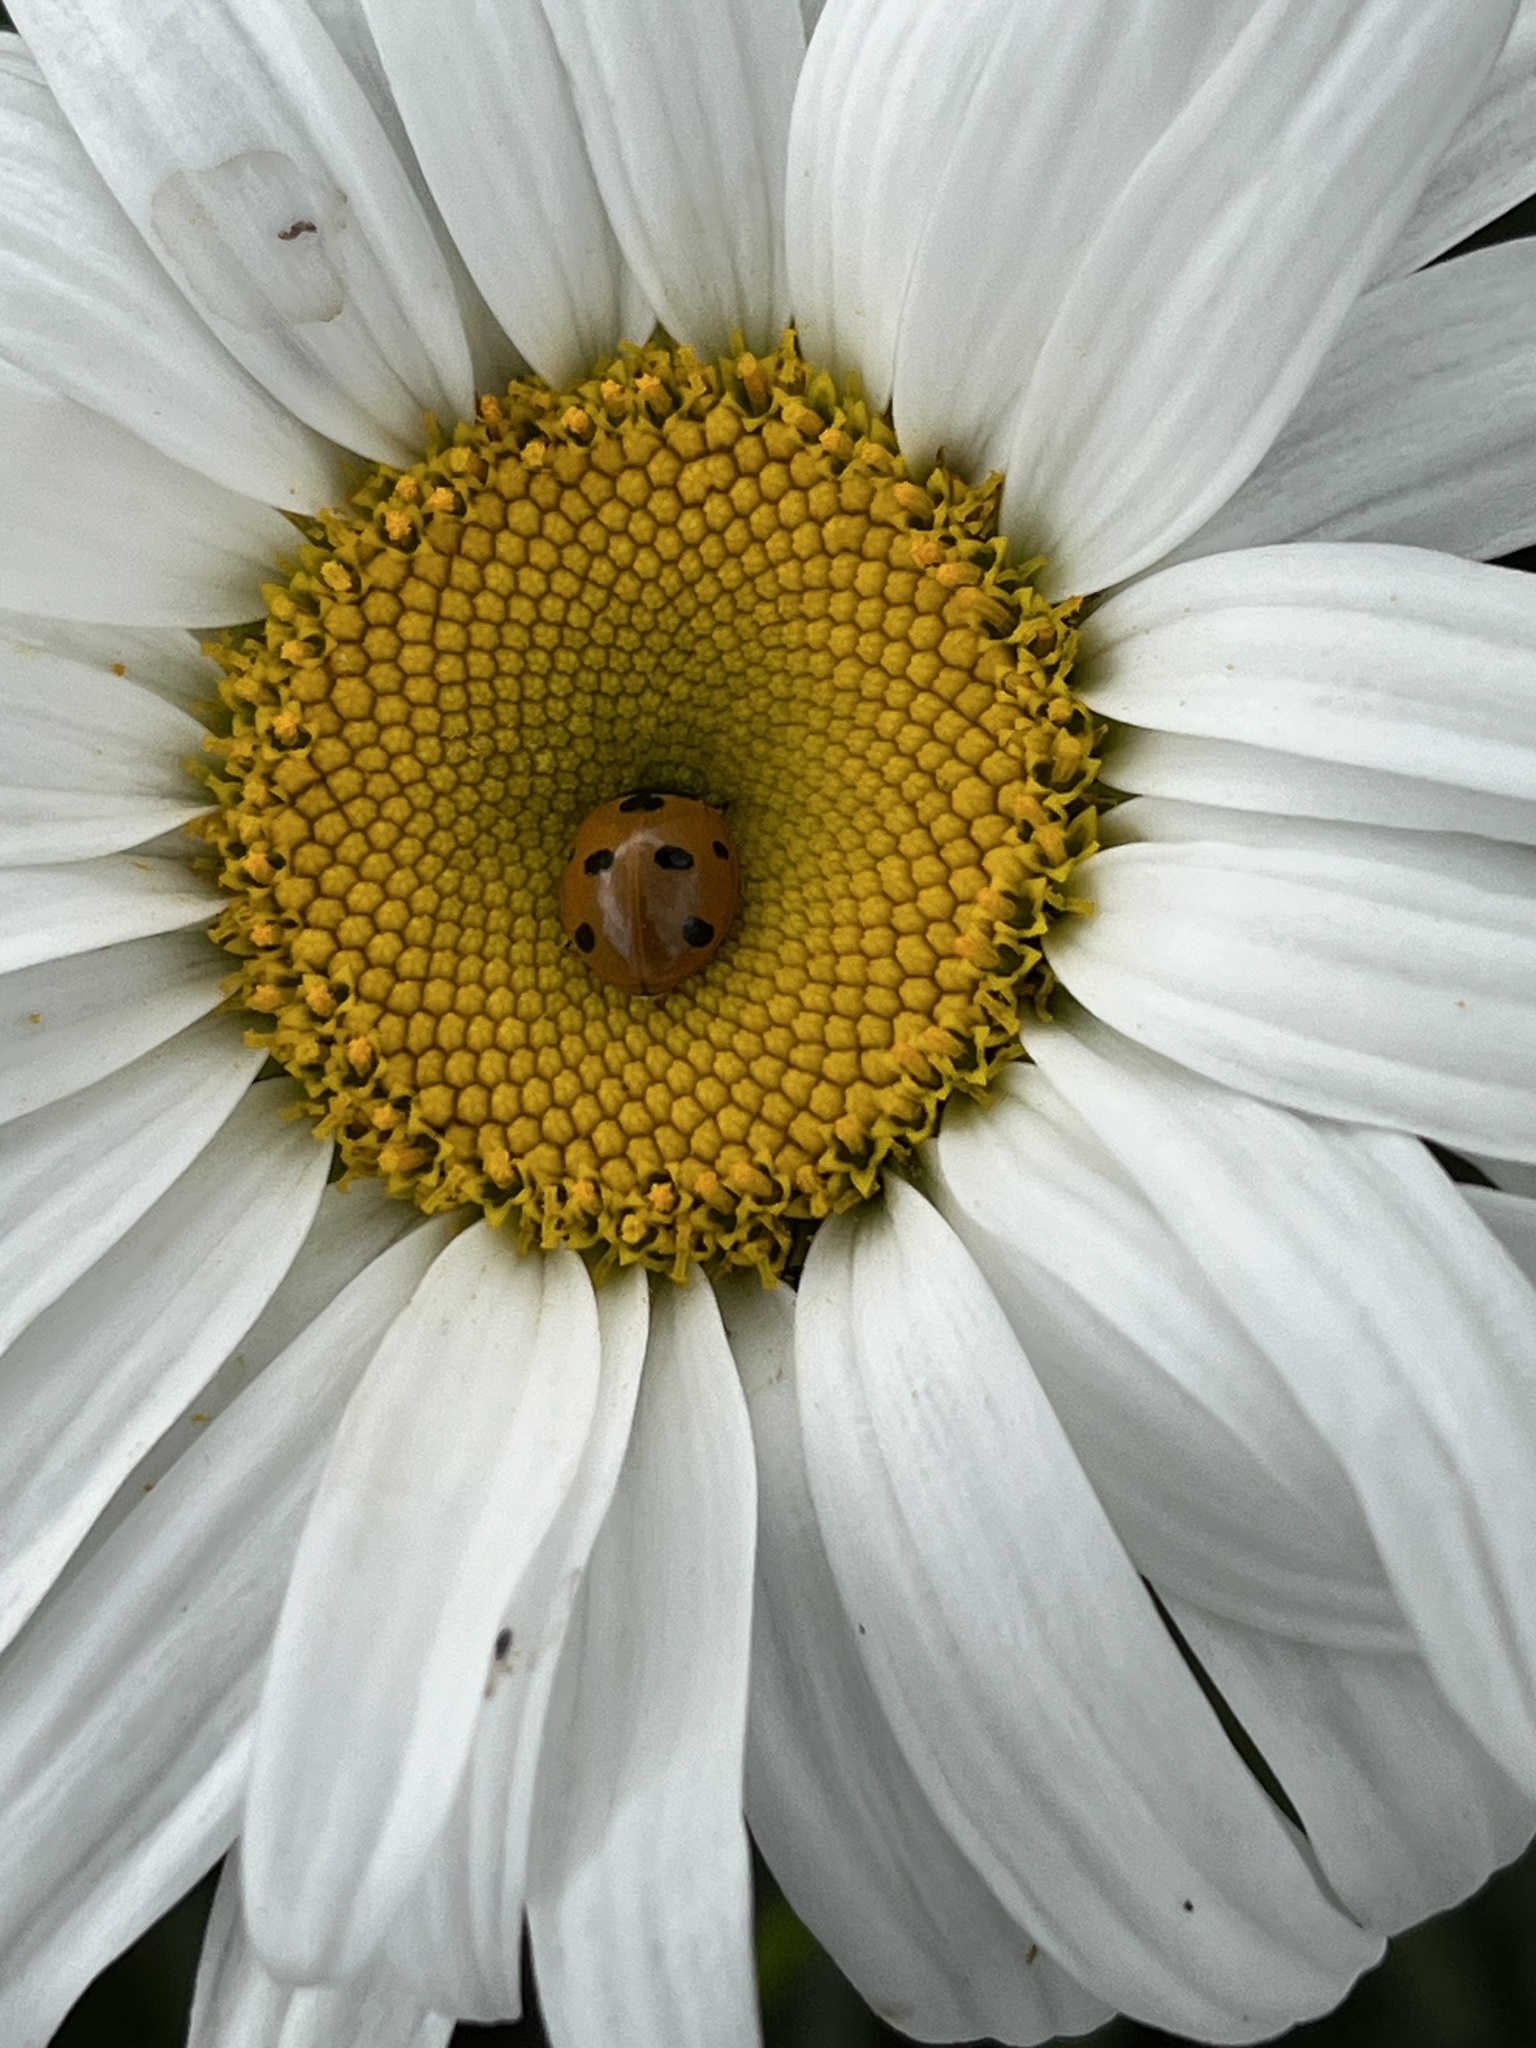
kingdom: Animalia
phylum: Arthropoda
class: Insecta
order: Coleoptera
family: Coccinellidae
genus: Coccinella
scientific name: Coccinella septempunctata
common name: Sevenspotted lady beetle
